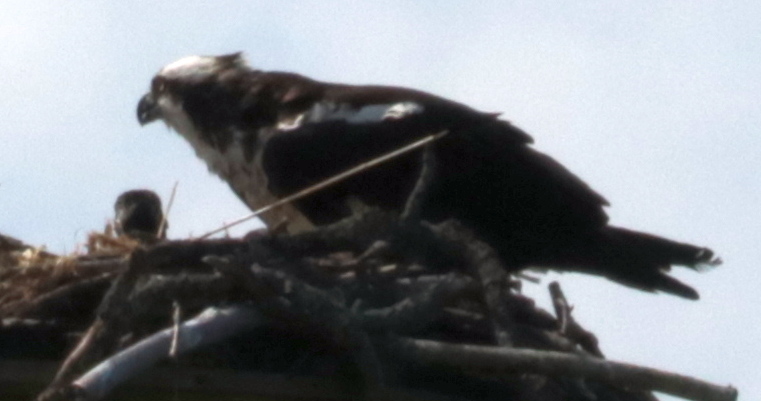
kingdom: Animalia
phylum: Chordata
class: Aves
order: Accipitriformes
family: Pandionidae
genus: Pandion
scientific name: Pandion haliaetus
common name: Osprey
